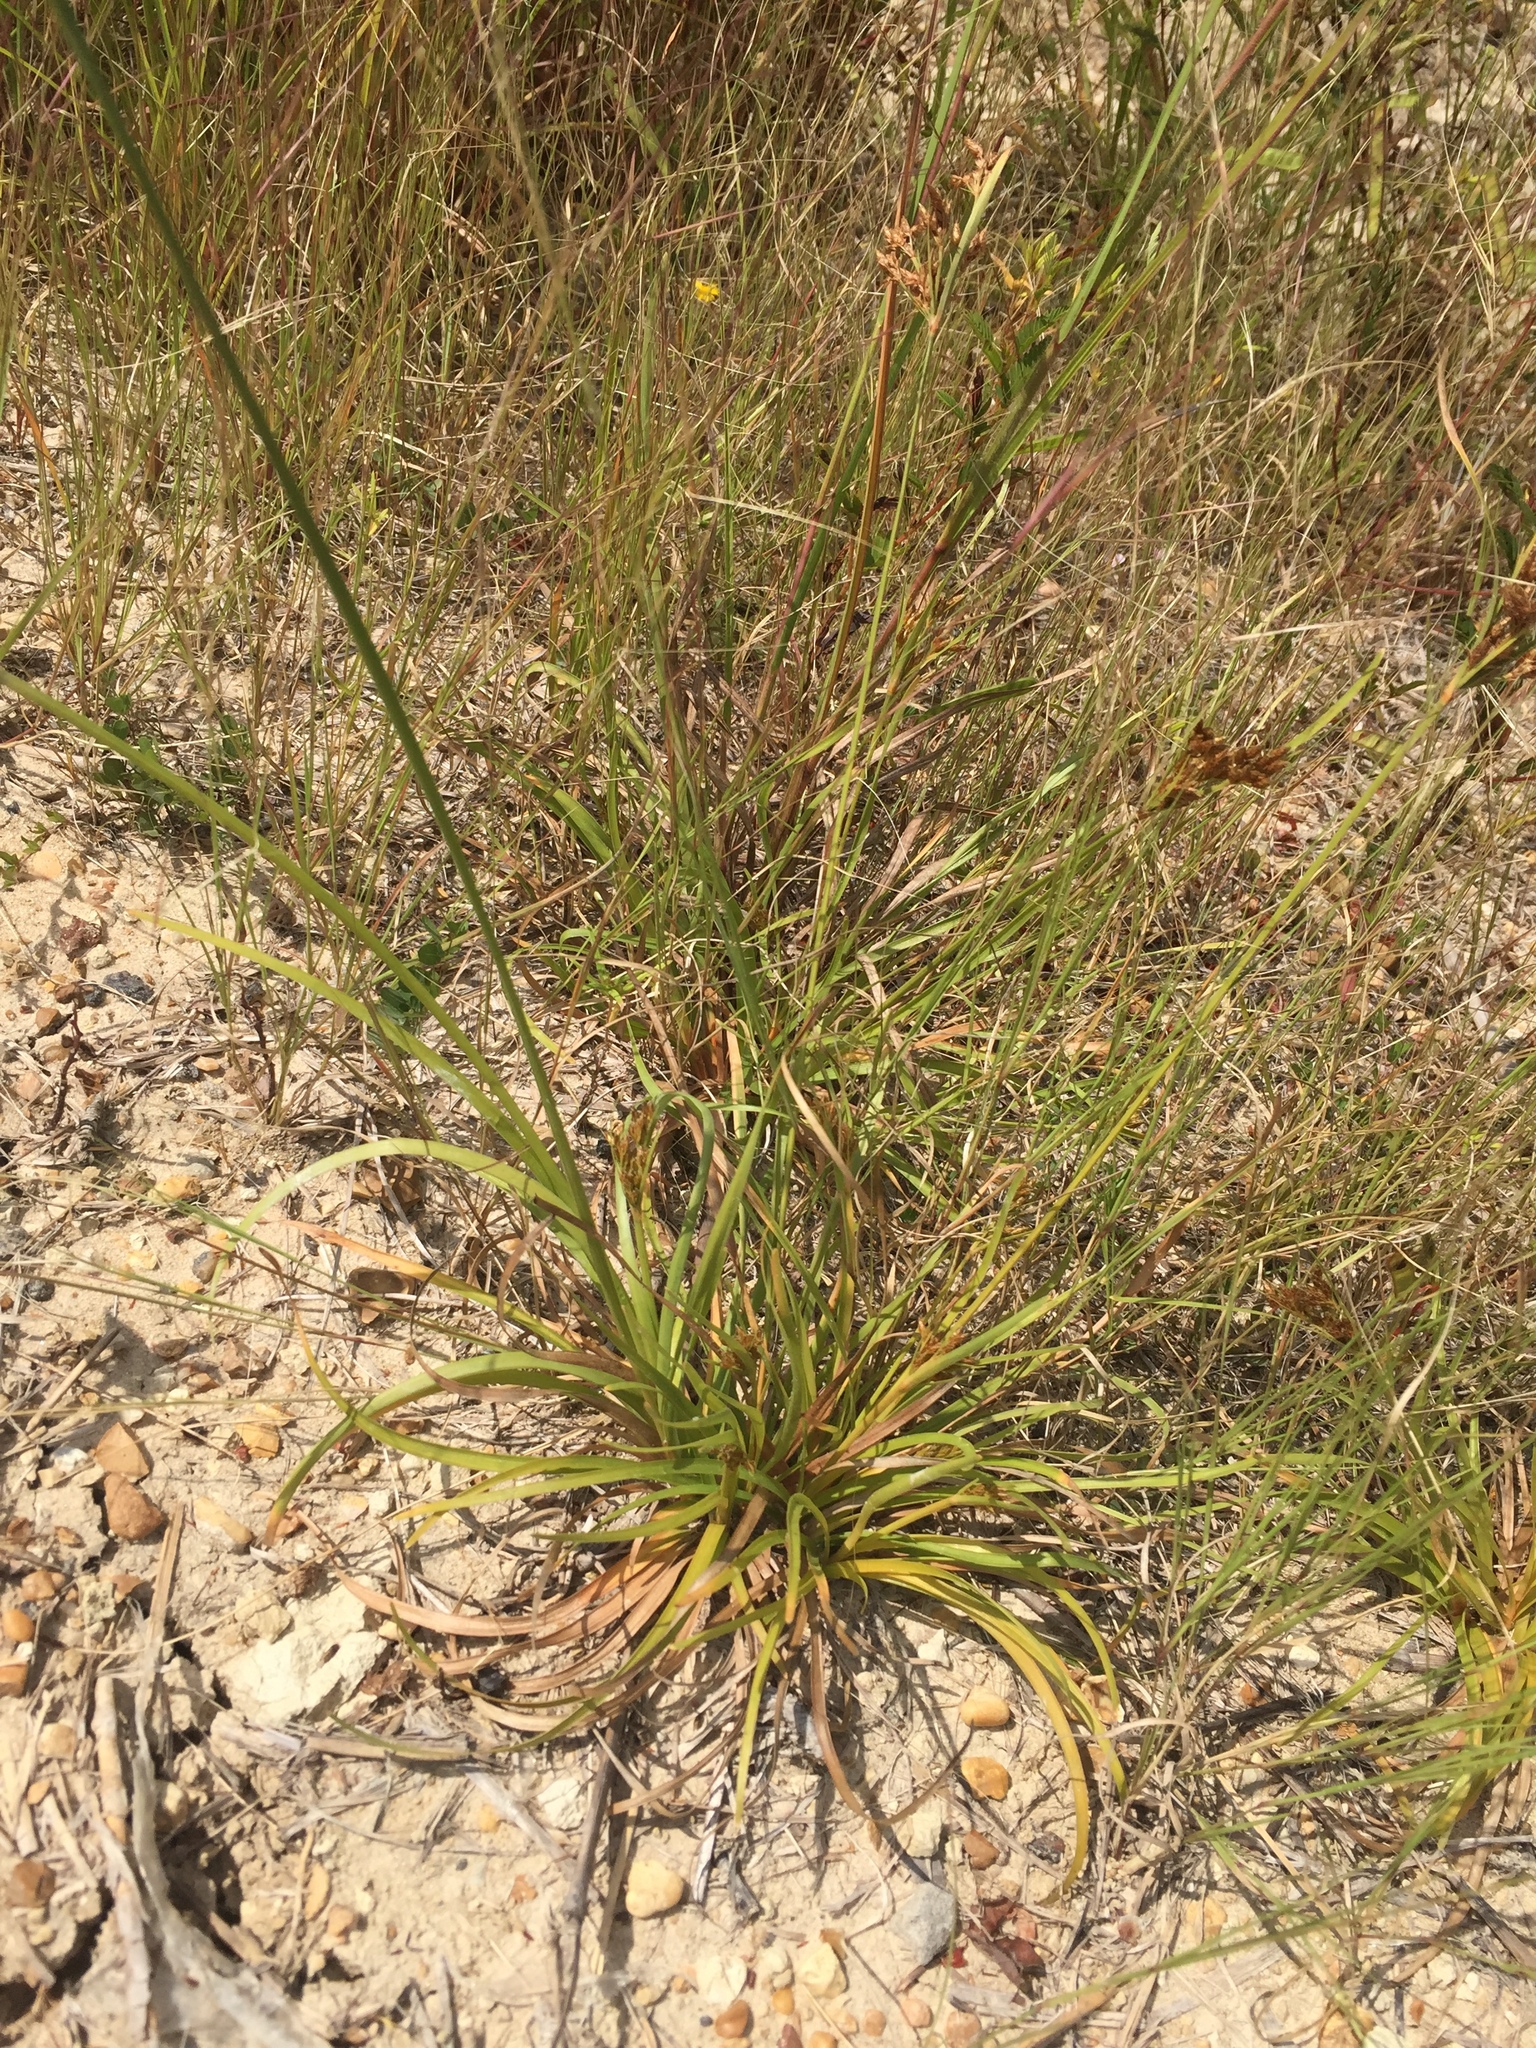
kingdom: Plantae
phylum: Tracheophyta
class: Liliopsida
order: Poales
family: Cyperaceae
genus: Fimbristylis
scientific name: Fimbristylis dichotoma
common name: Forked fimbry
